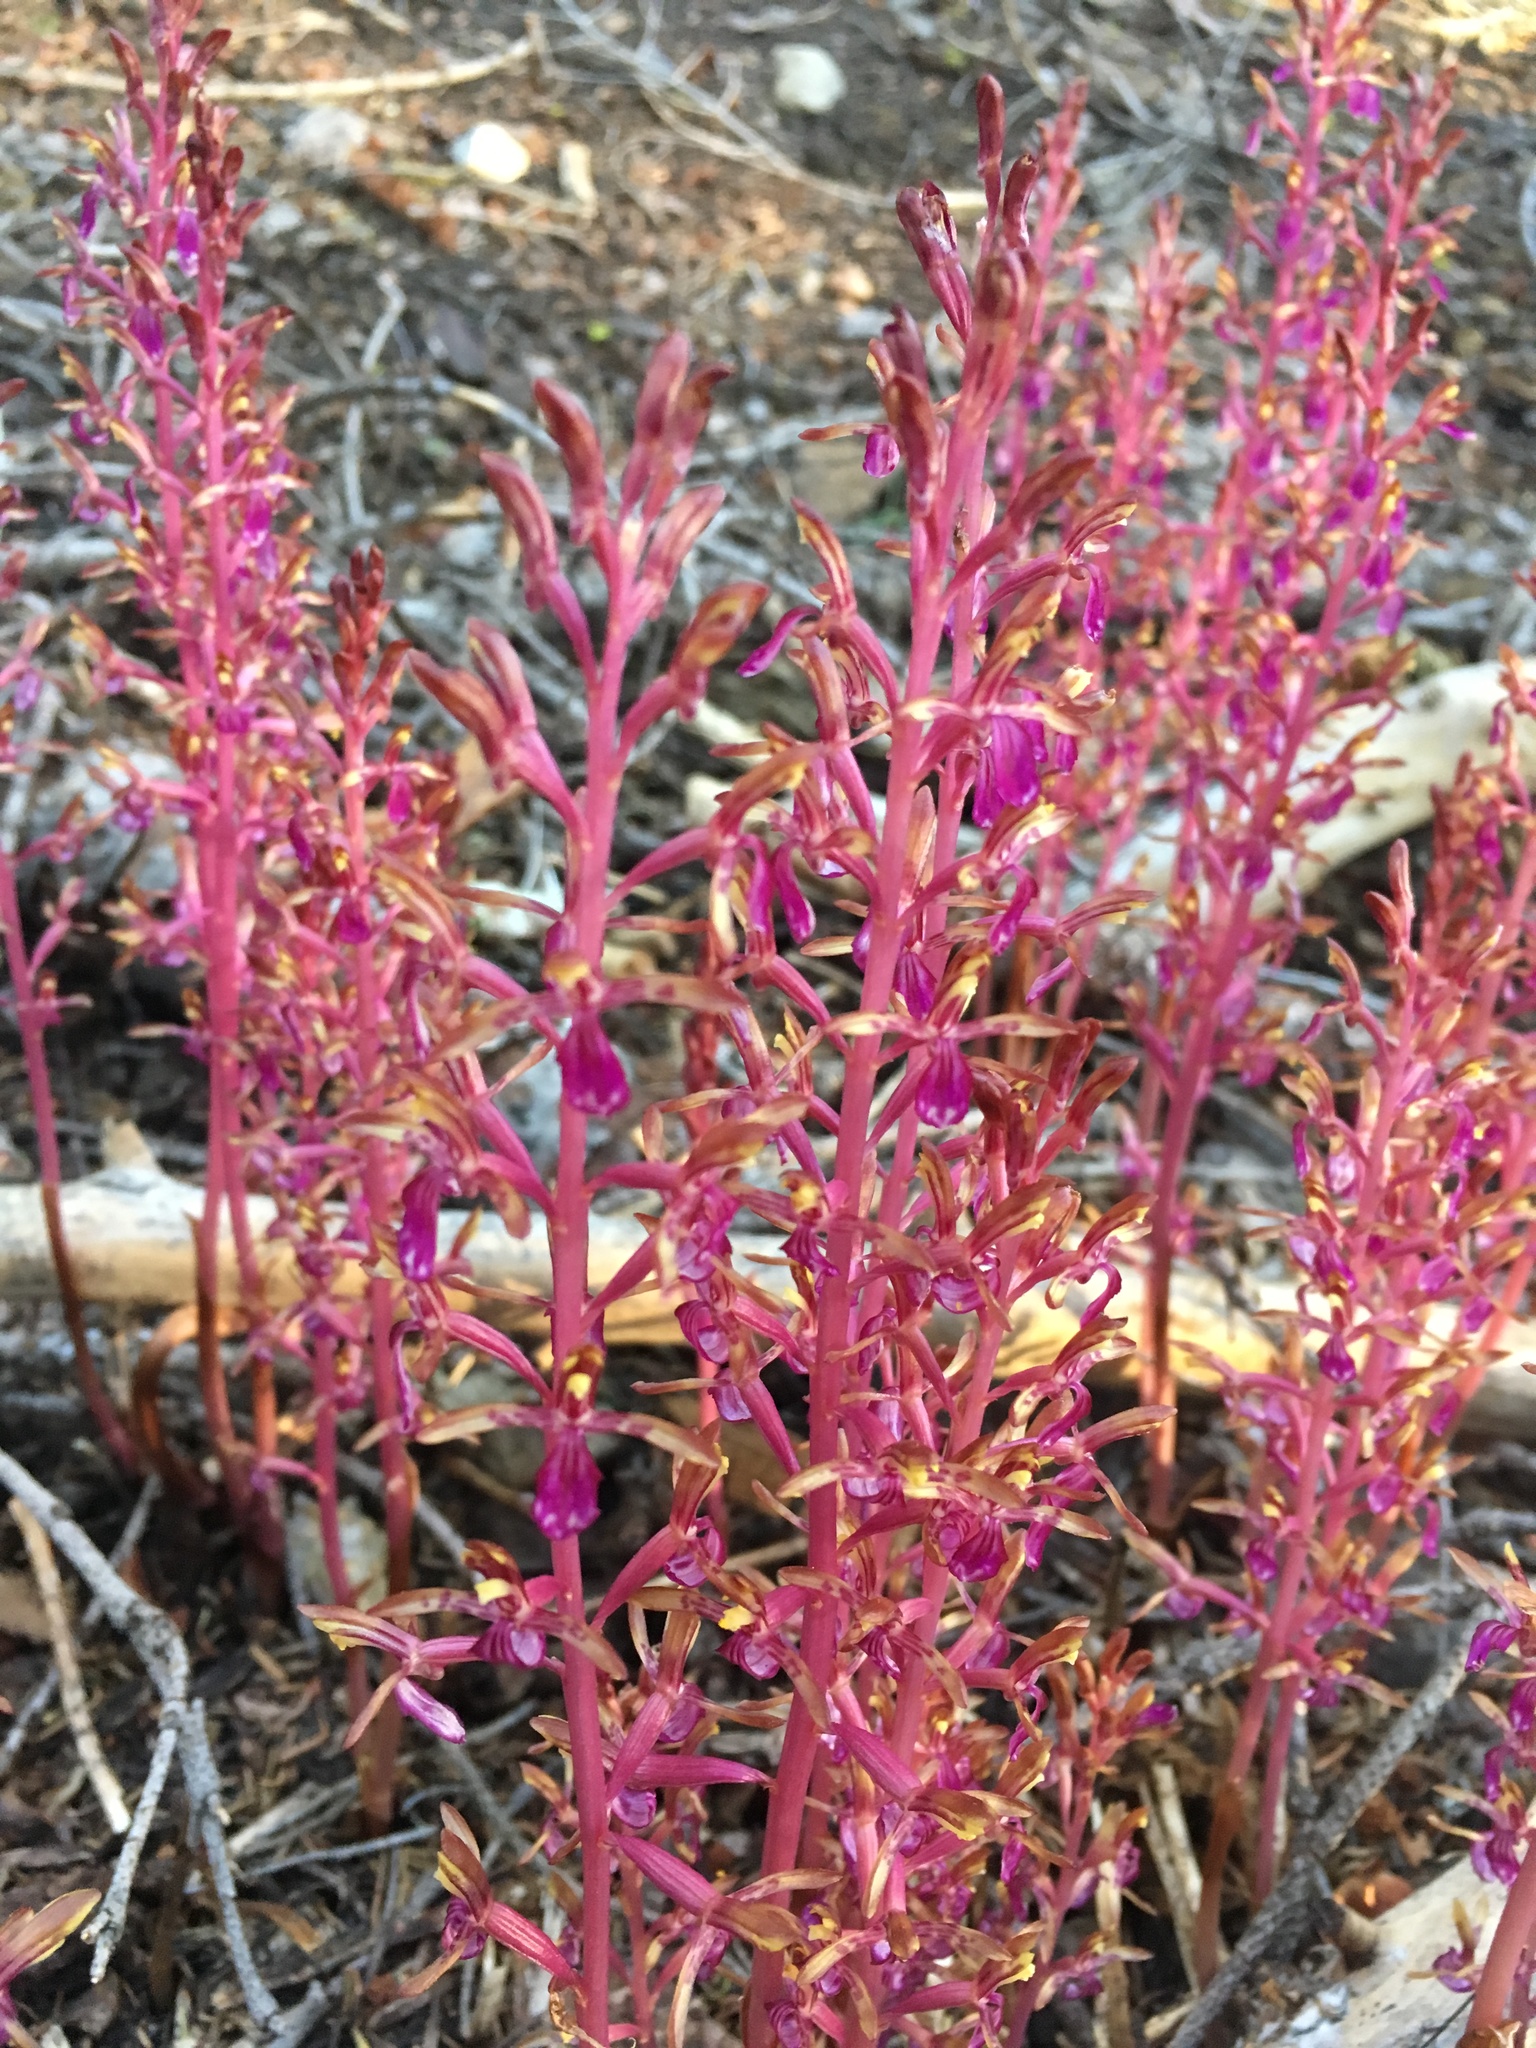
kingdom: Plantae
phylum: Tracheophyta
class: Liliopsida
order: Asparagales
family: Orchidaceae
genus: Corallorhiza
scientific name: Corallorhiza mertensiana
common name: Pacific coralroot
